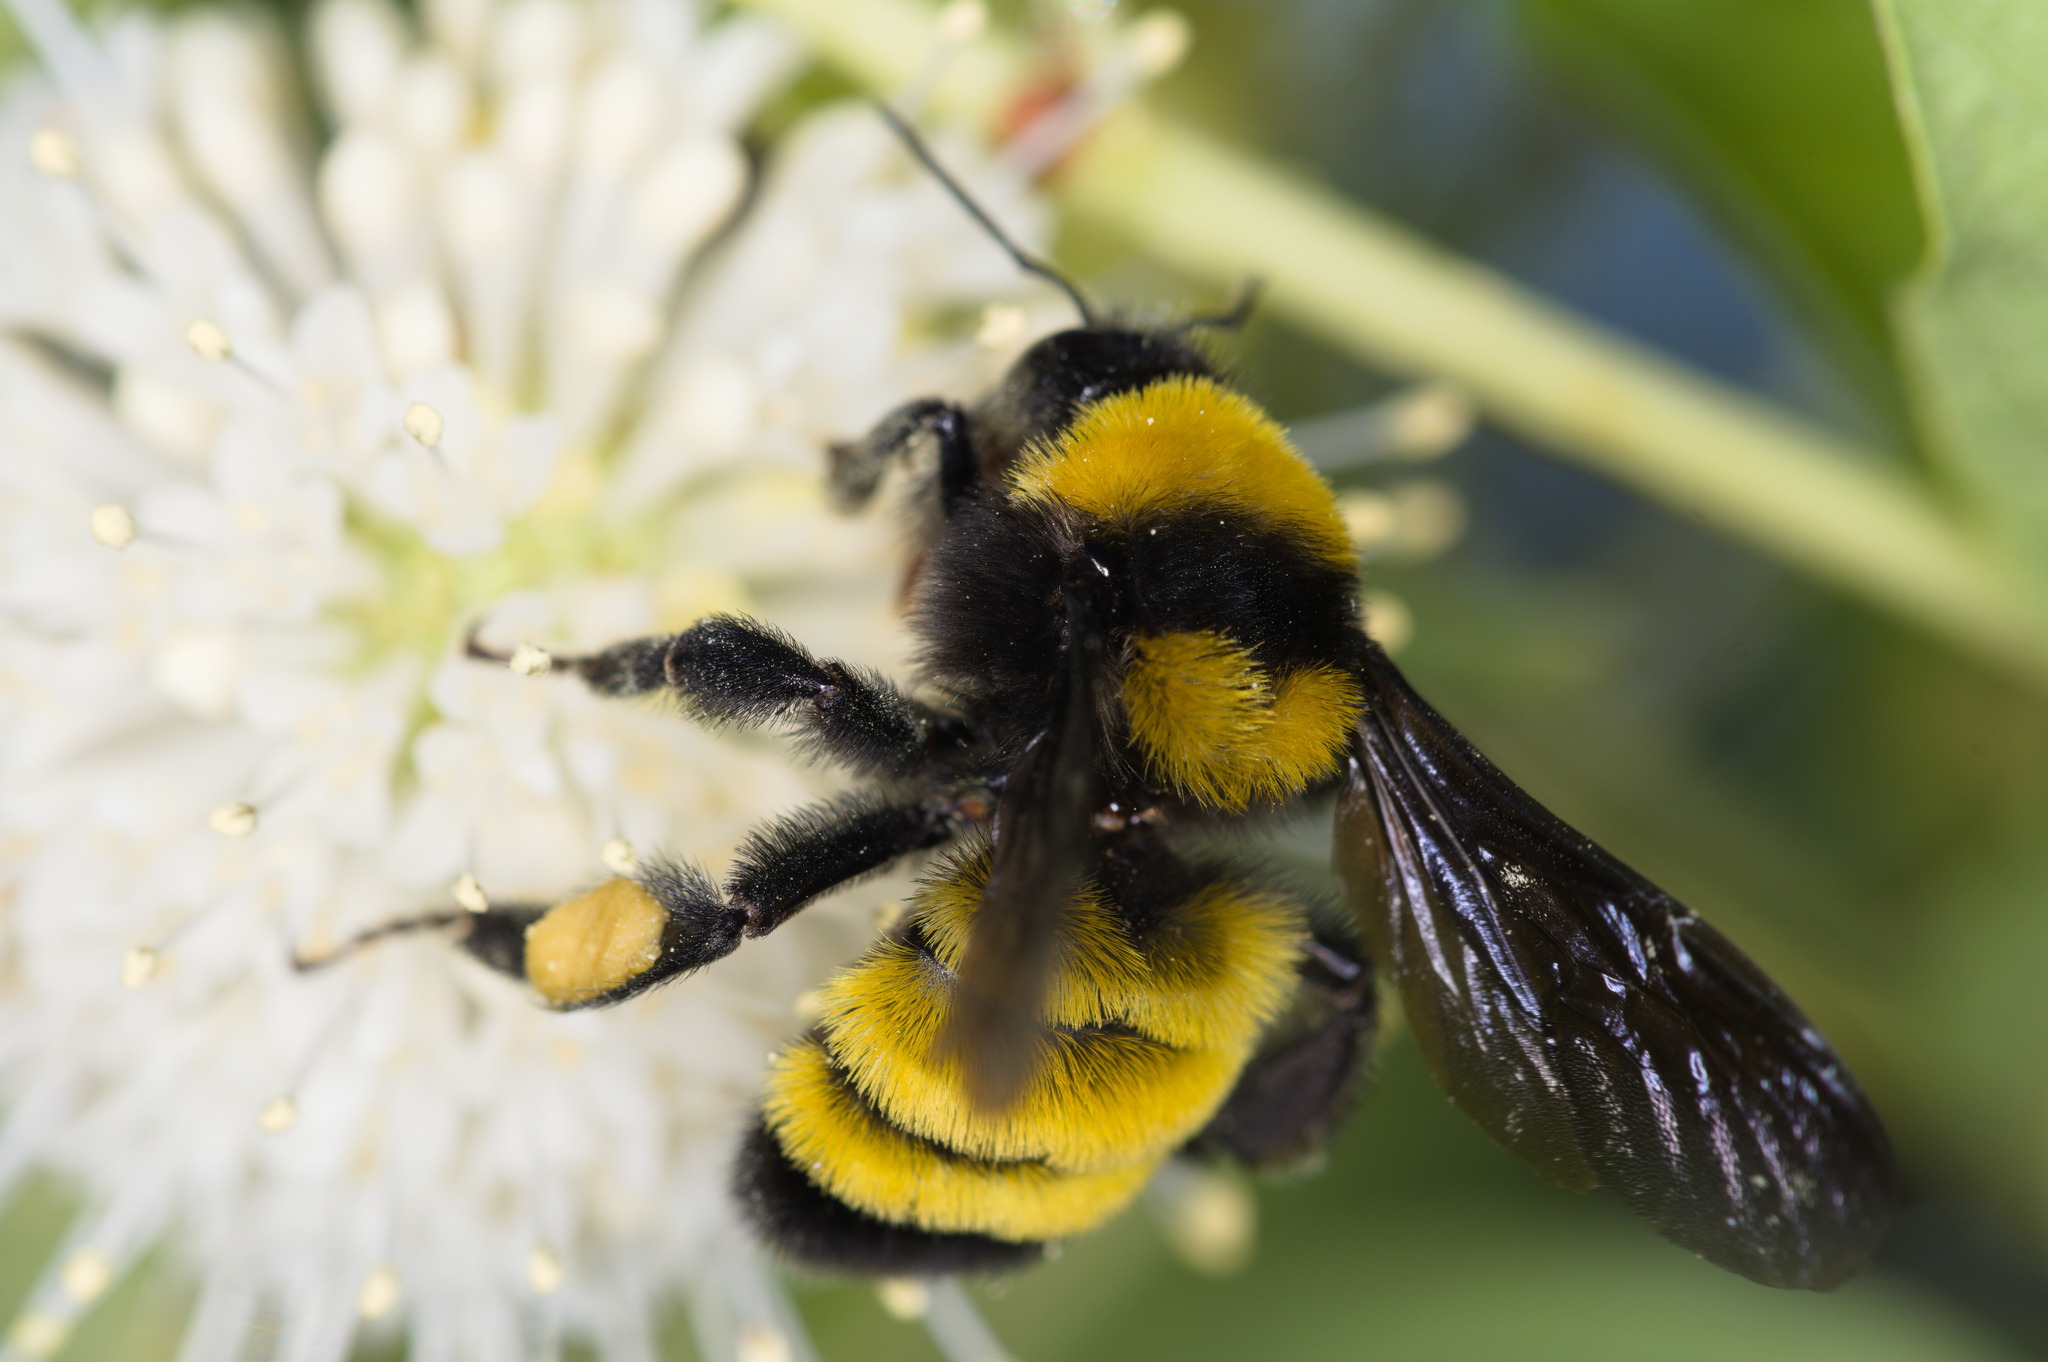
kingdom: Animalia
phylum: Arthropoda
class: Insecta
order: Hymenoptera
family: Apidae
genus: Bombus
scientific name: Bombus sonorus
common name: Sonoran bumble bee
